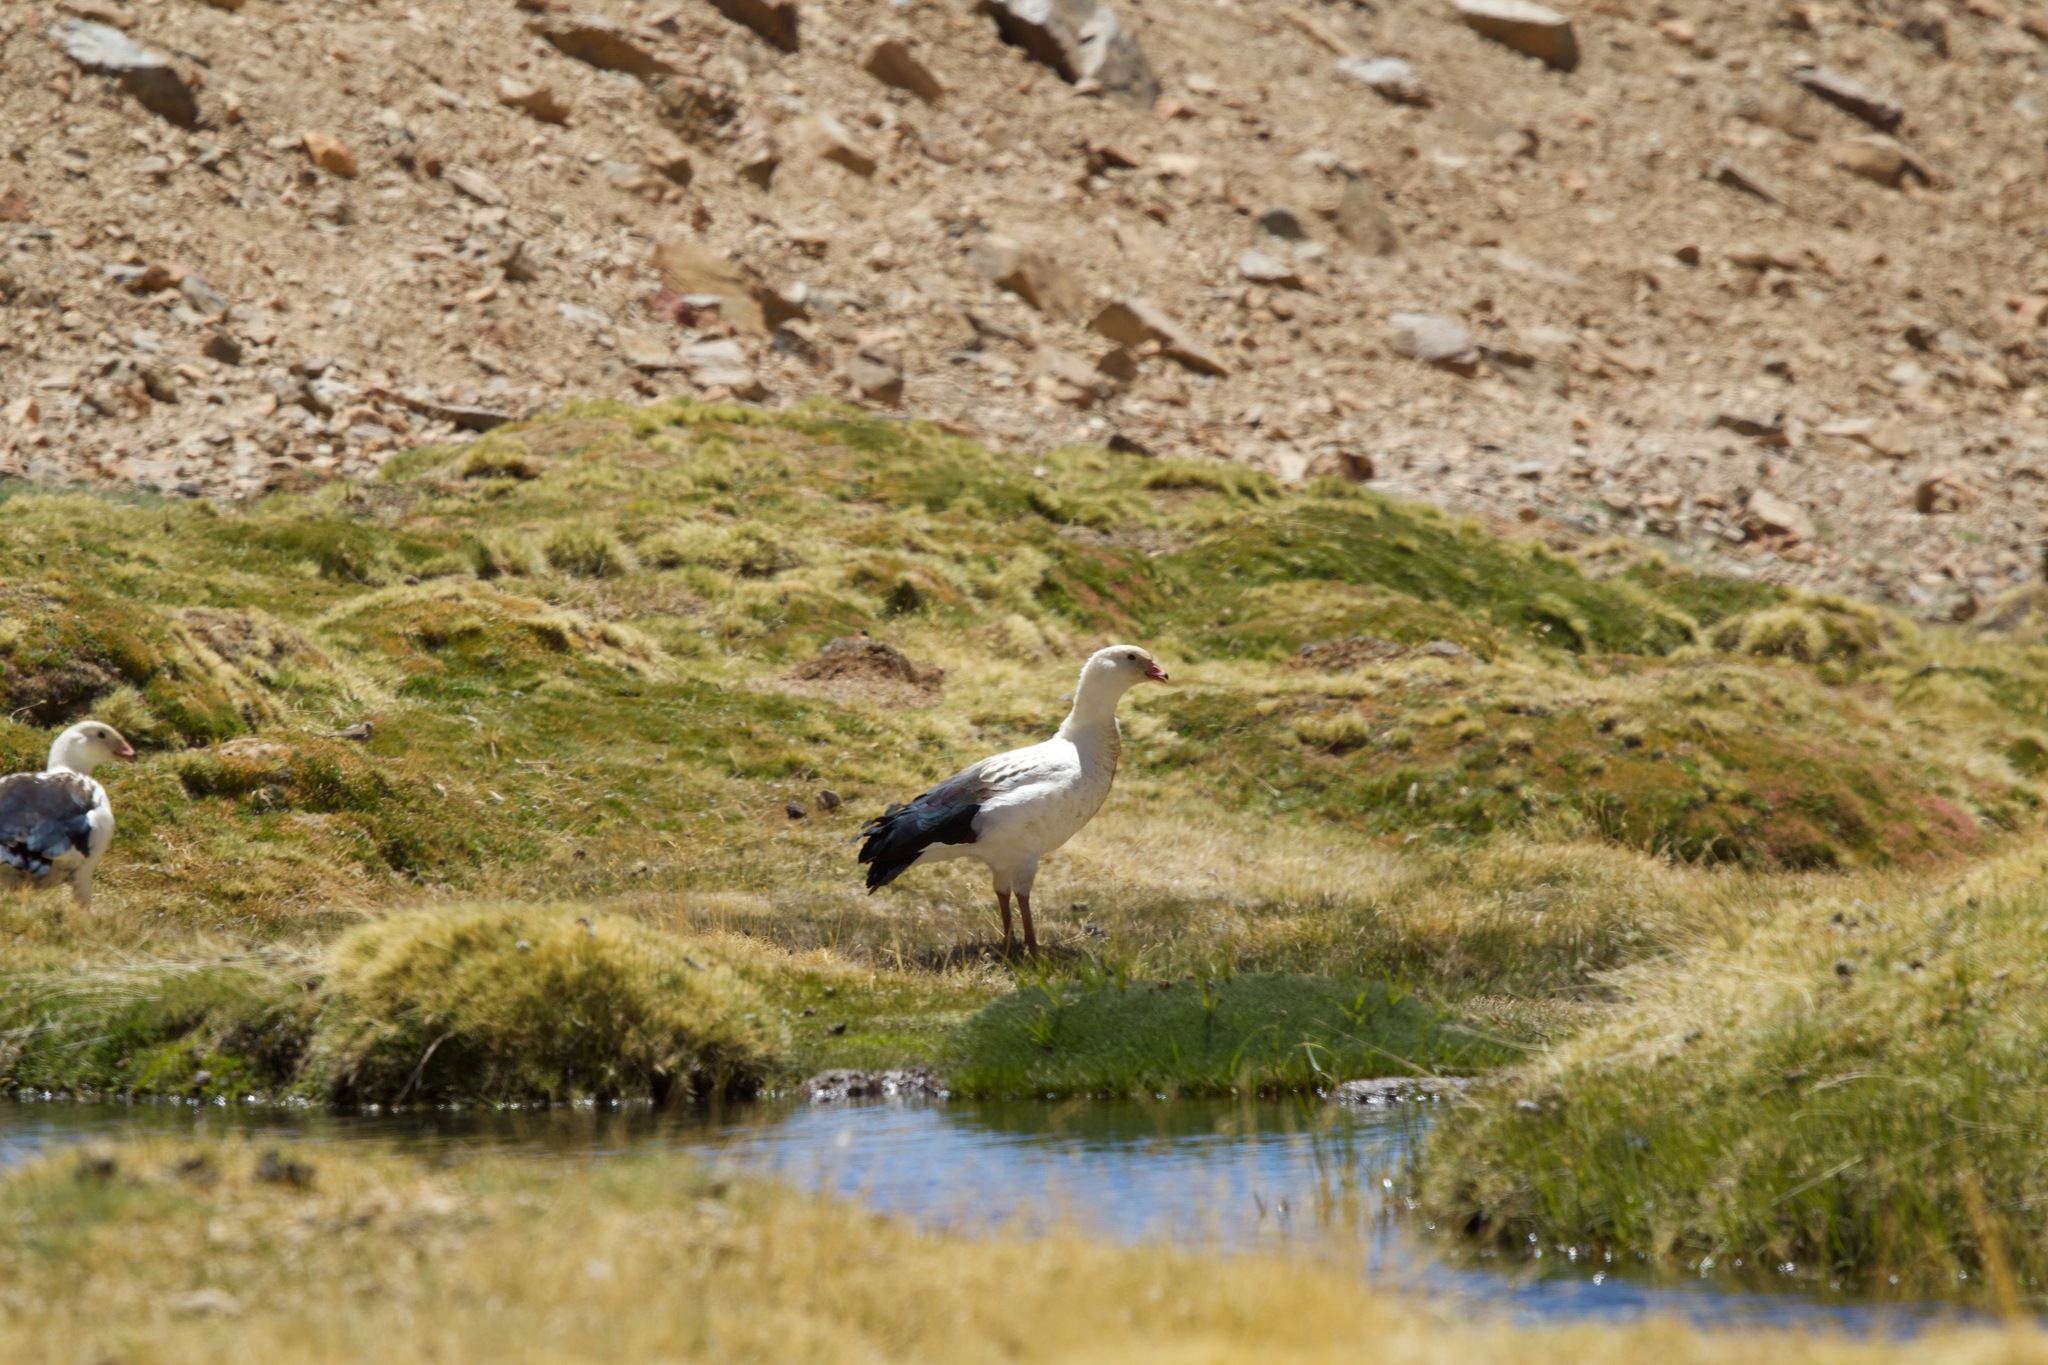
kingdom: Animalia
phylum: Chordata
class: Aves
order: Anseriformes
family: Anatidae
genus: Chloephaga
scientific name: Chloephaga melanoptera
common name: Andean goose
